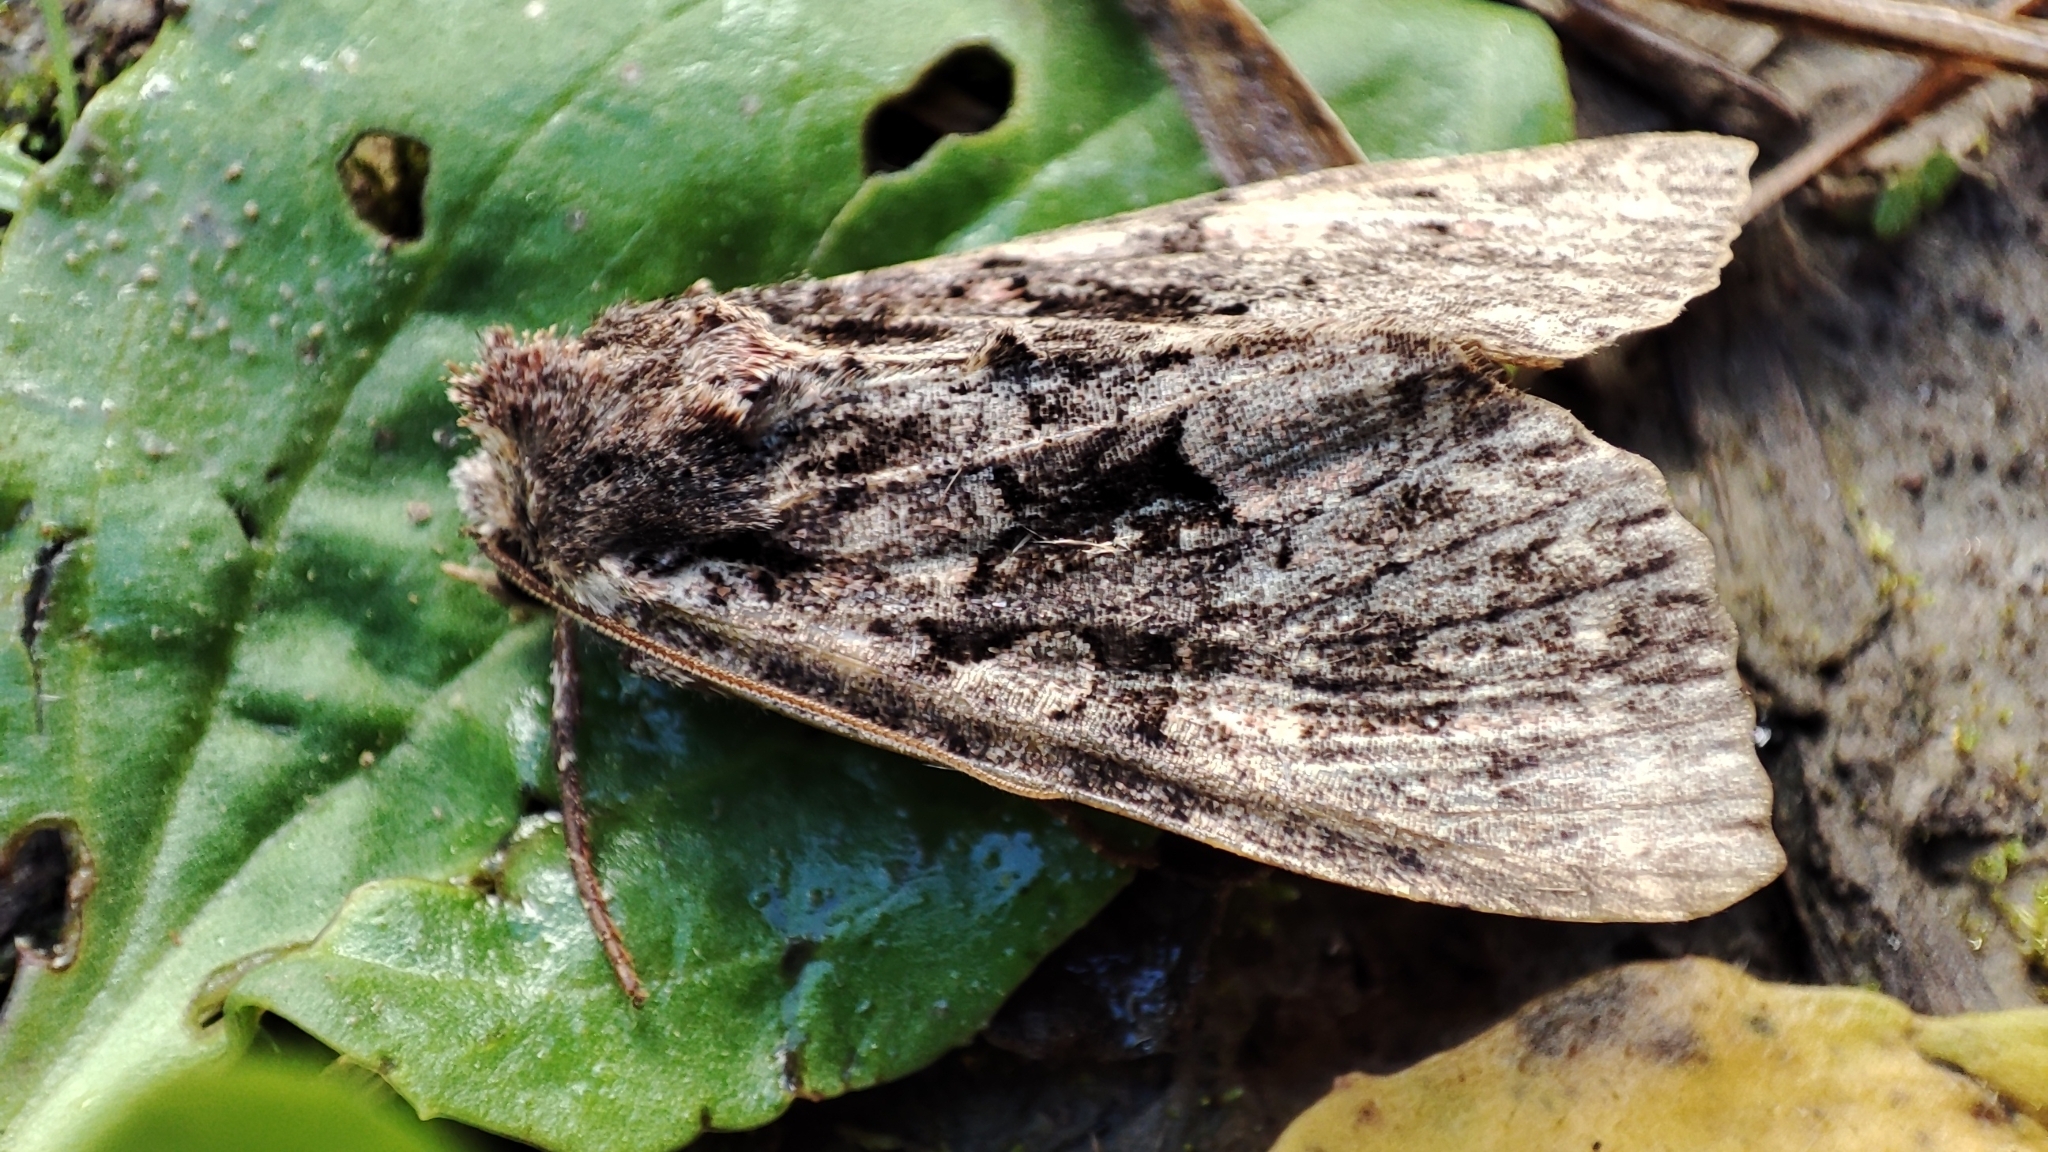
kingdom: Animalia
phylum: Arthropoda
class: Insecta
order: Lepidoptera
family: Noctuidae
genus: Mniotype
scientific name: Mniotype satura
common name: Beautiful arches
